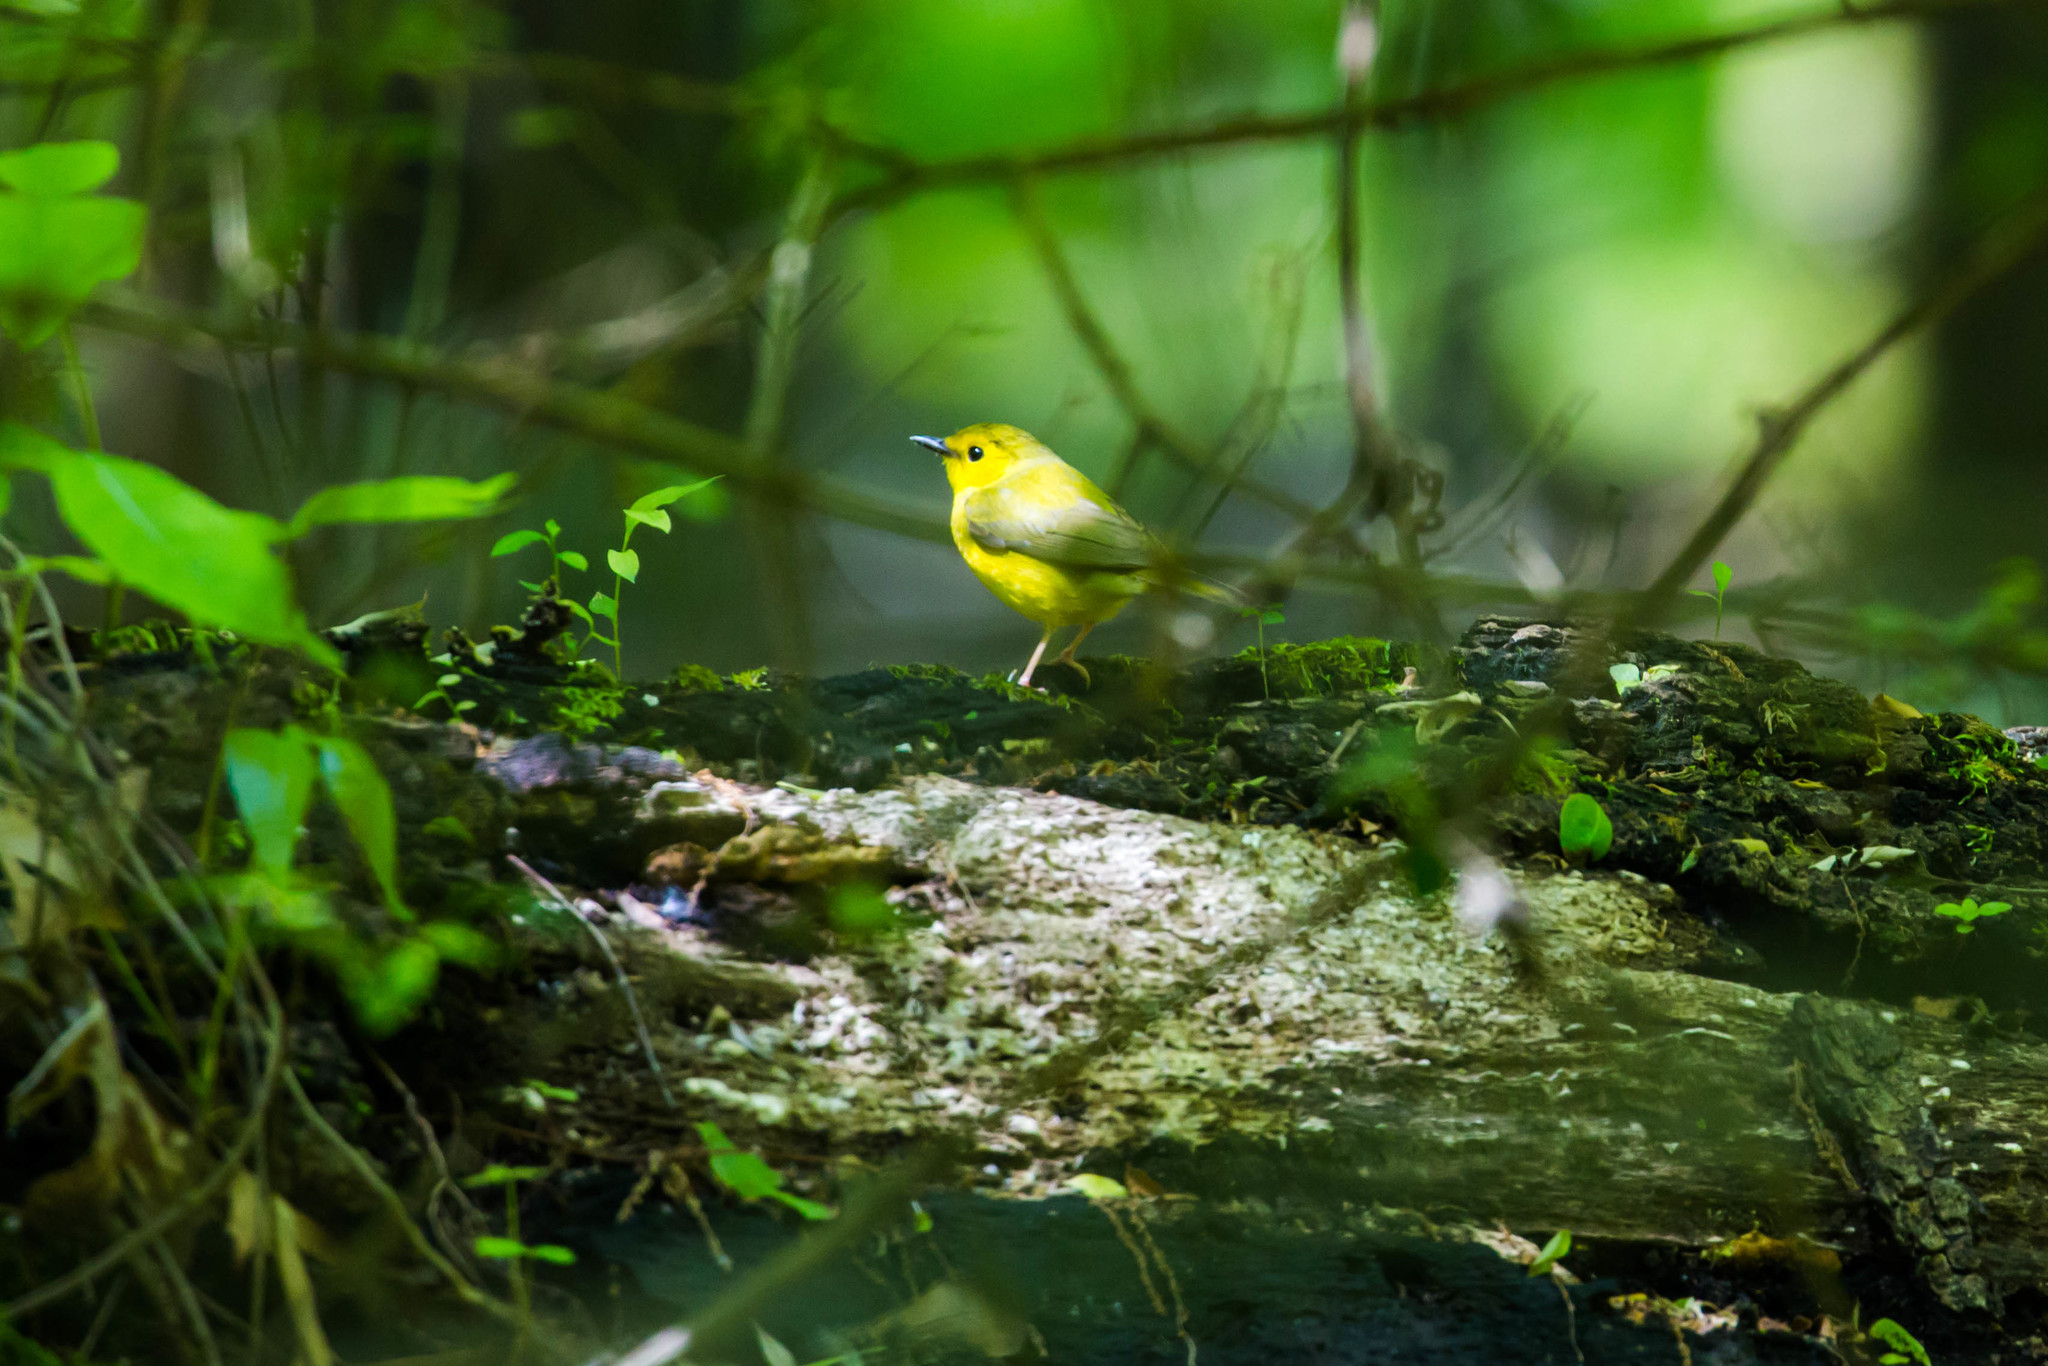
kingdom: Animalia
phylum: Chordata
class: Aves
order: Passeriformes
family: Parulidae
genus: Setophaga
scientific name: Setophaga citrina
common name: Hooded warbler
